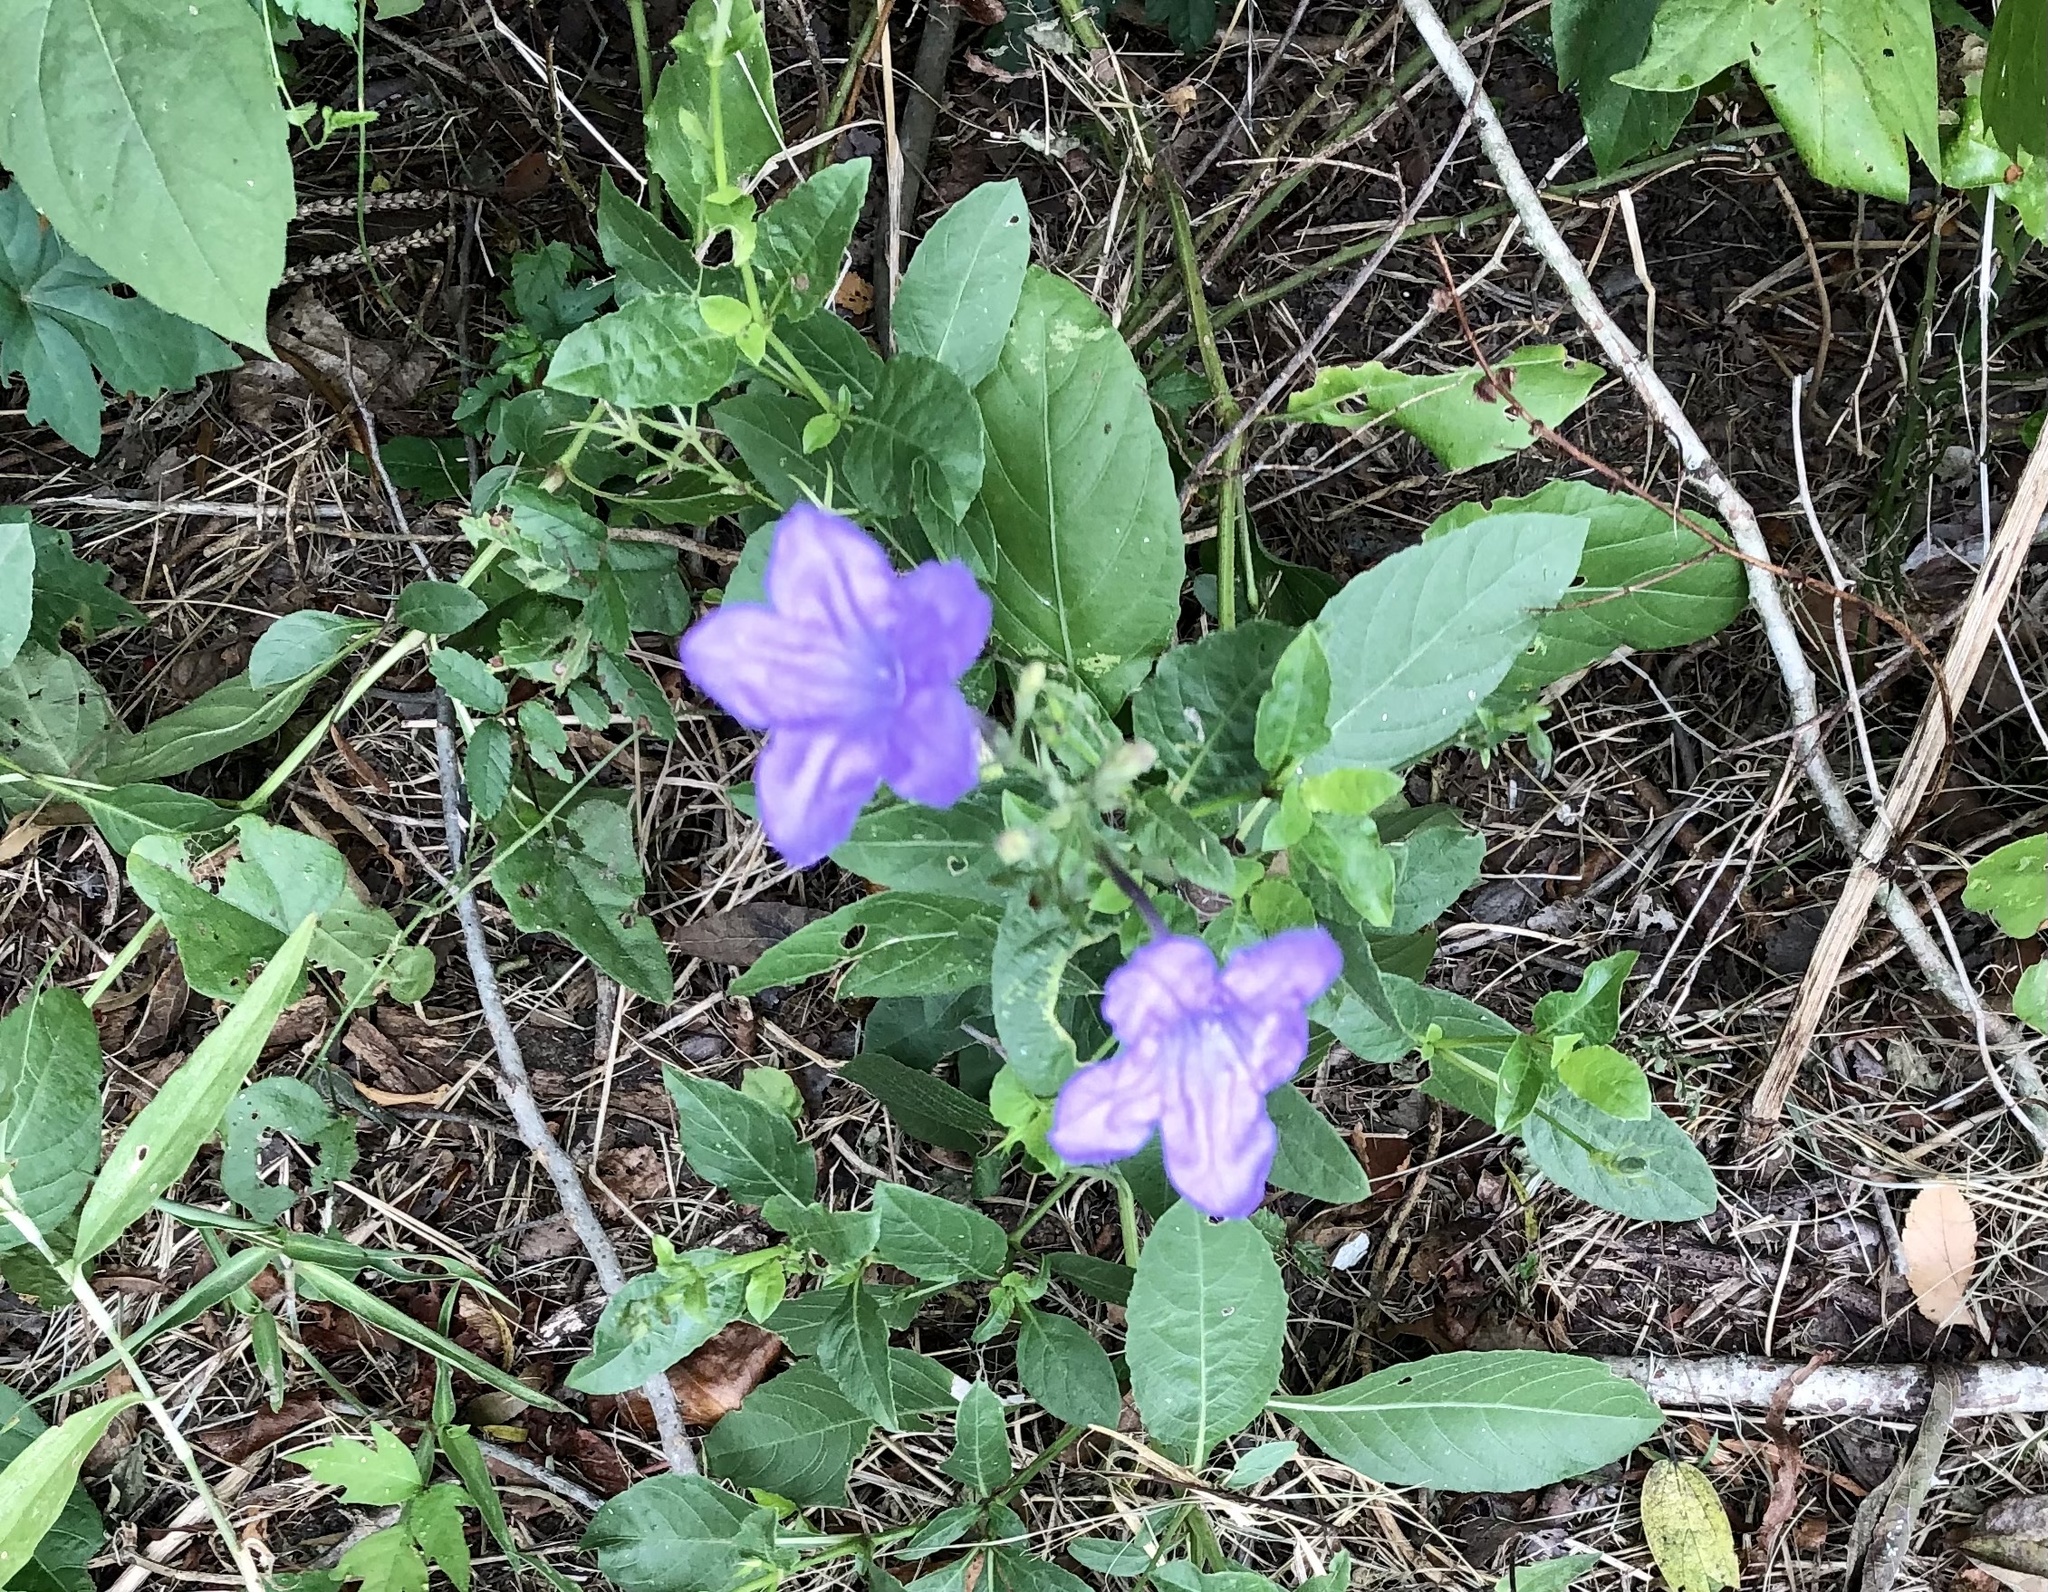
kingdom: Plantae
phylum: Tracheophyta
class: Magnoliopsida
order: Lamiales
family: Acanthaceae
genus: Ruellia
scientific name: Ruellia ciliatiflora
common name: Hairyflower wild petunia
